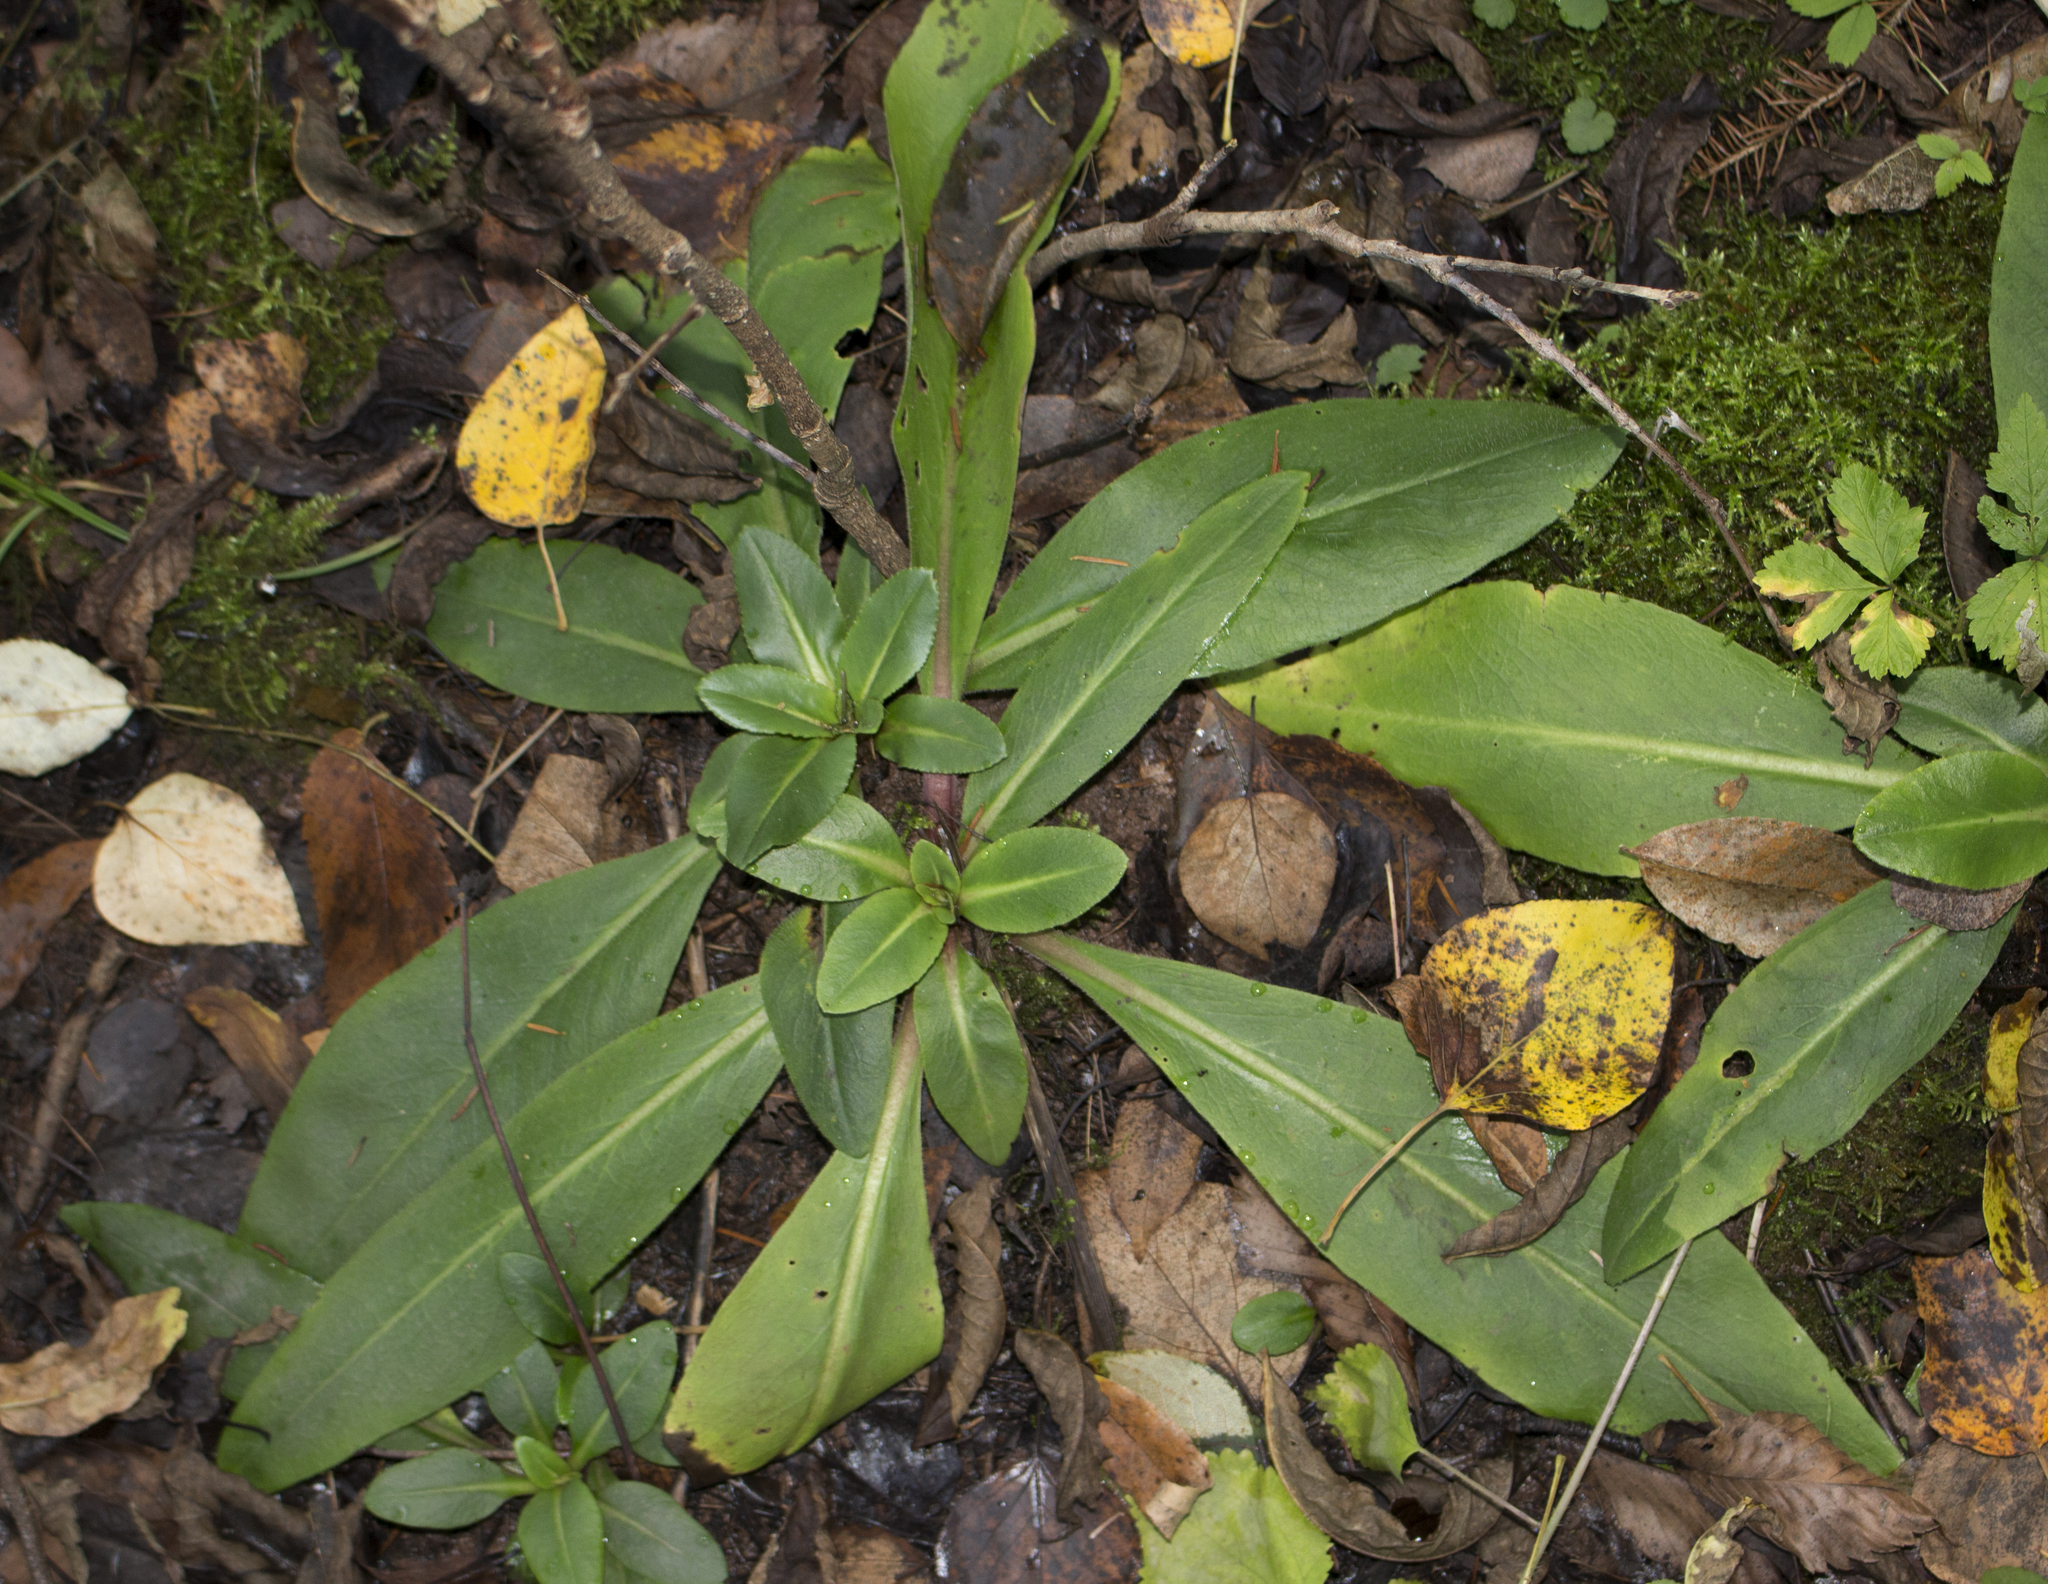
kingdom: Plantae
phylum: Tracheophyta
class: Magnoliopsida
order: Saxifragales
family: Saxifragaceae
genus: Micranthes
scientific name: Micranthes pensylvanica
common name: Marsh saxifrage
